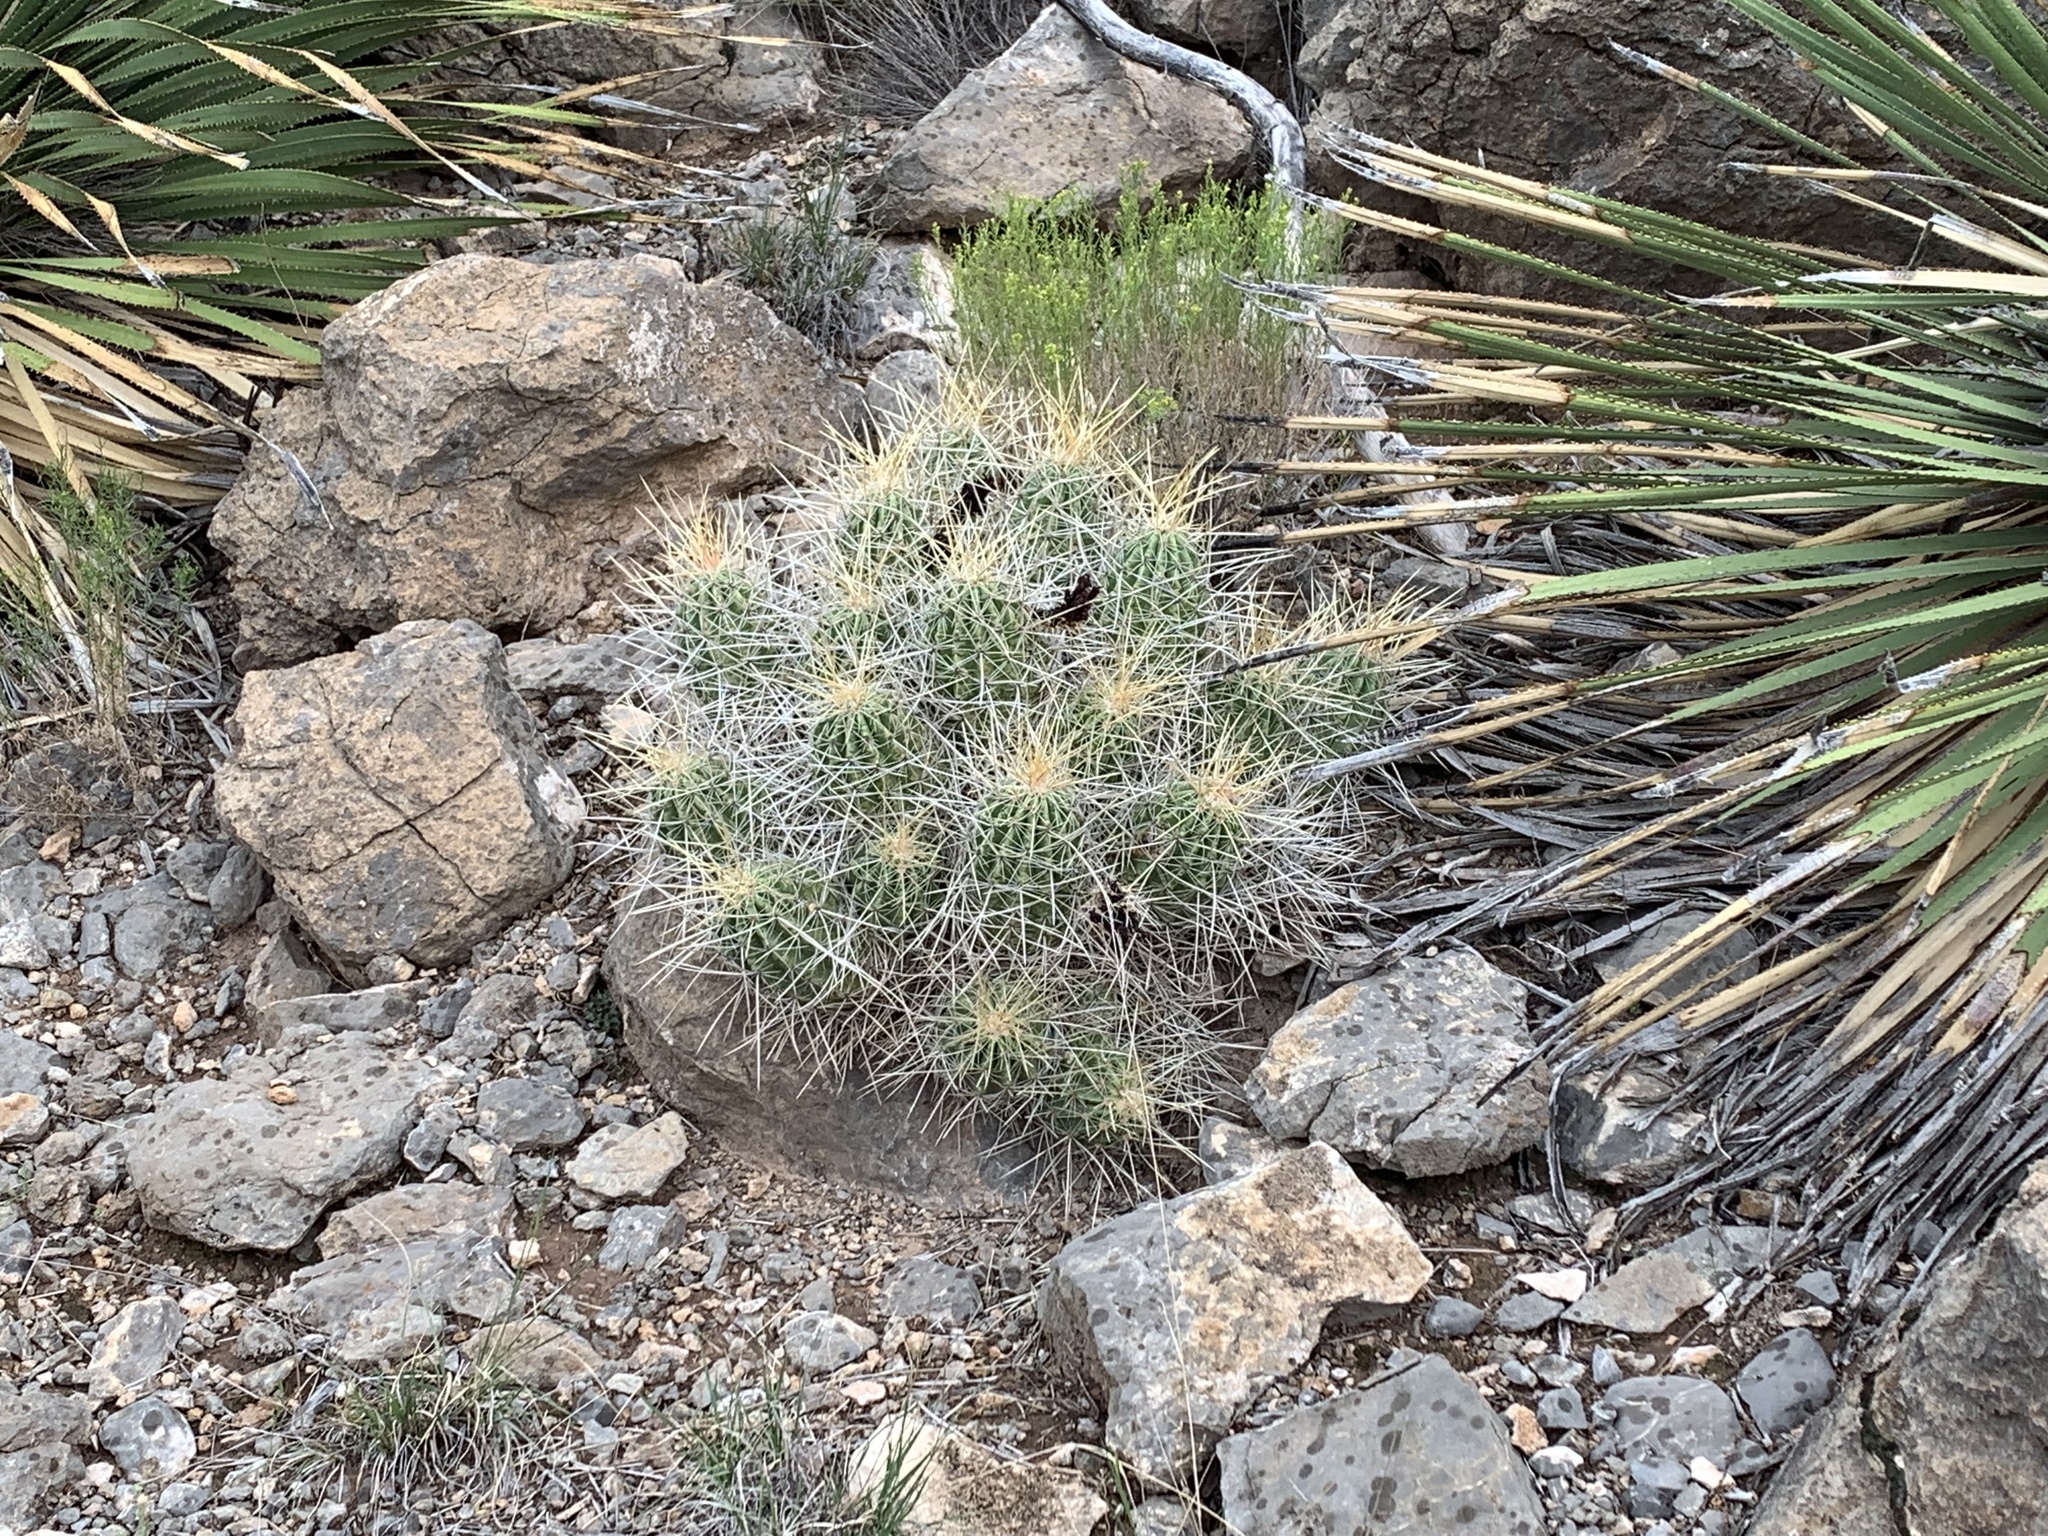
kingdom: Plantae
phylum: Tracheophyta
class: Magnoliopsida
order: Caryophyllales
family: Cactaceae
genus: Echinocereus
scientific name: Echinocereus stramineus
